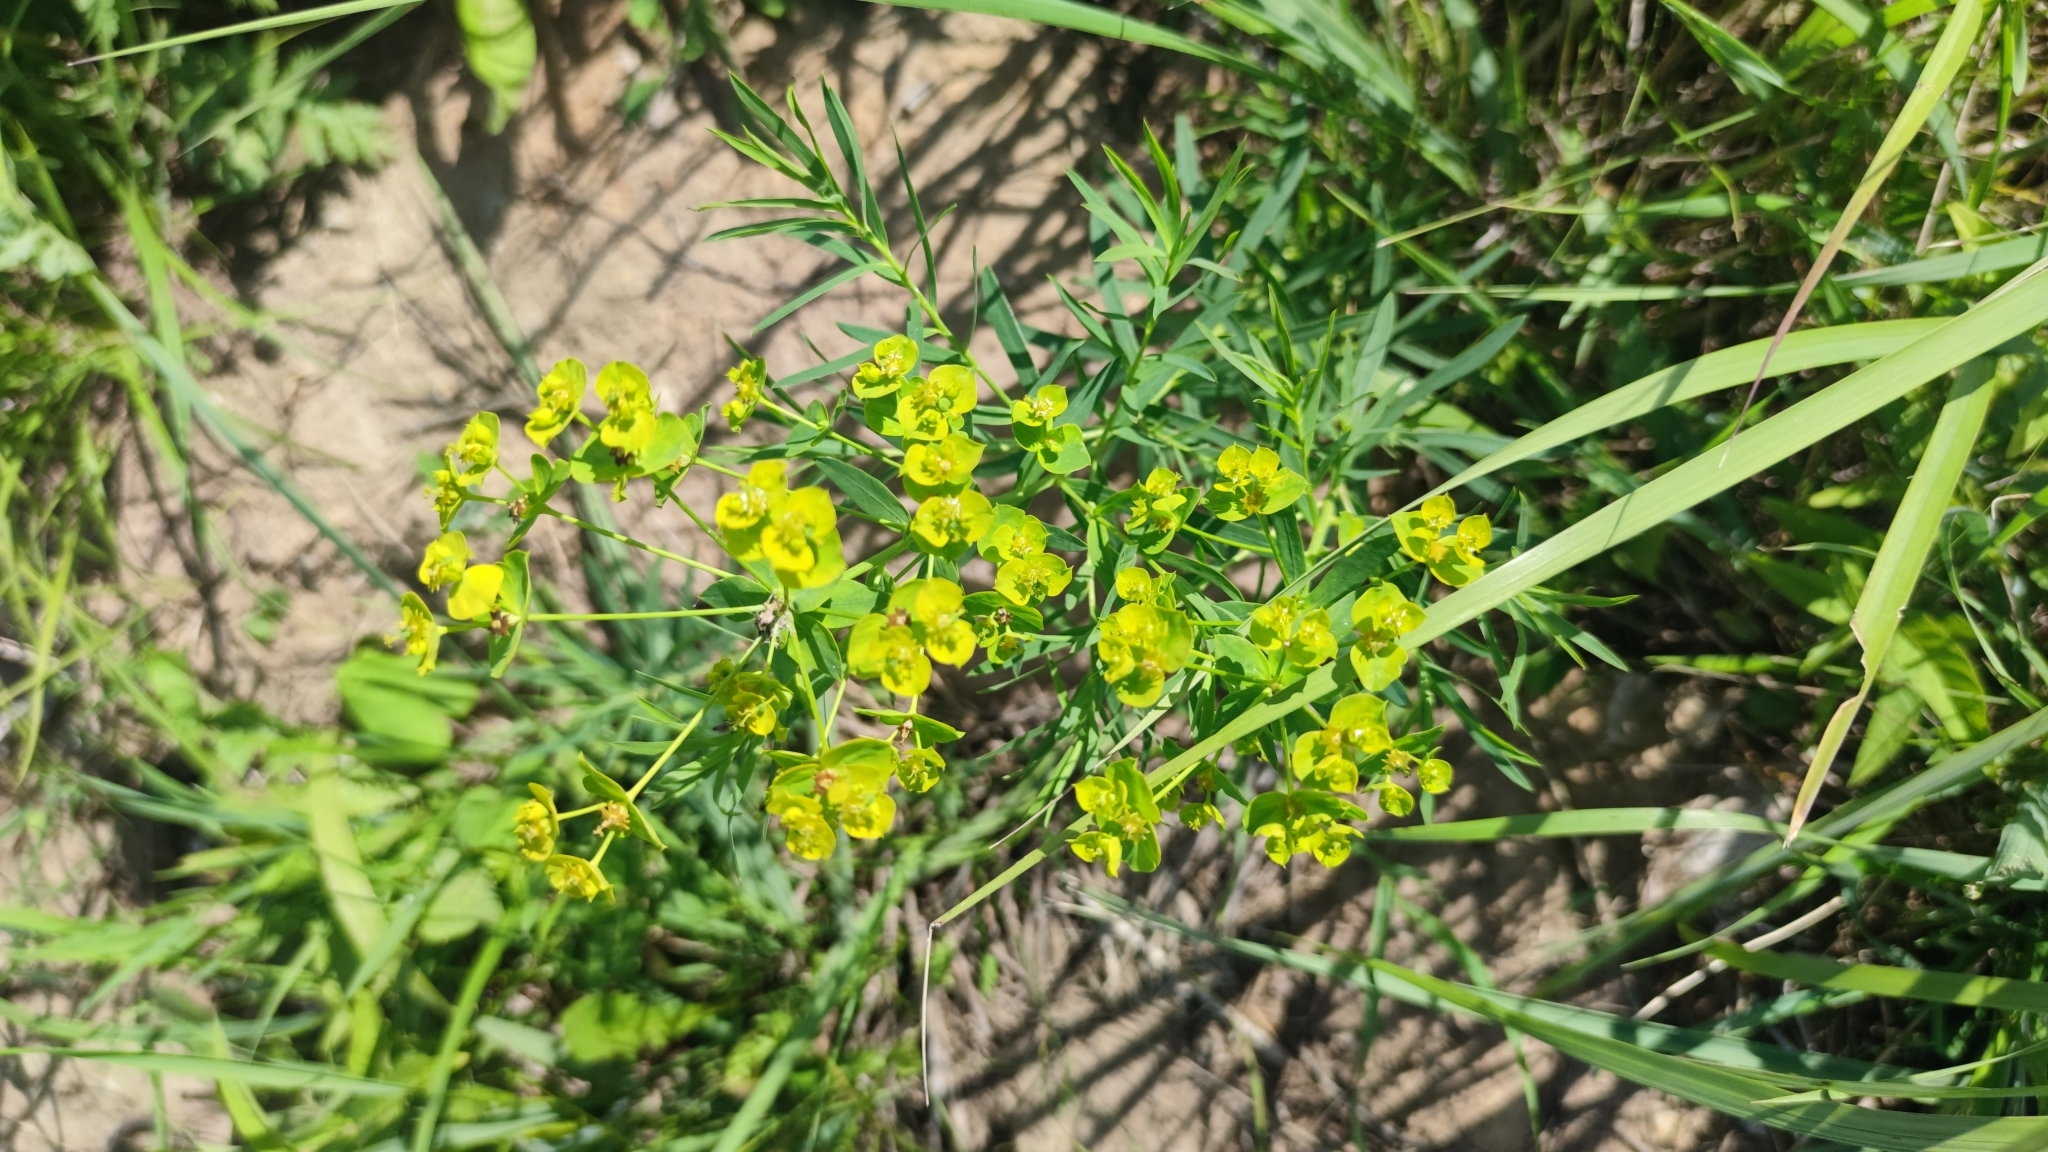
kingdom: Plantae
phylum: Tracheophyta
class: Magnoliopsida
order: Malpighiales
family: Euphorbiaceae
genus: Euphorbia
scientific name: Euphorbia virgata
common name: Leafy spurge
